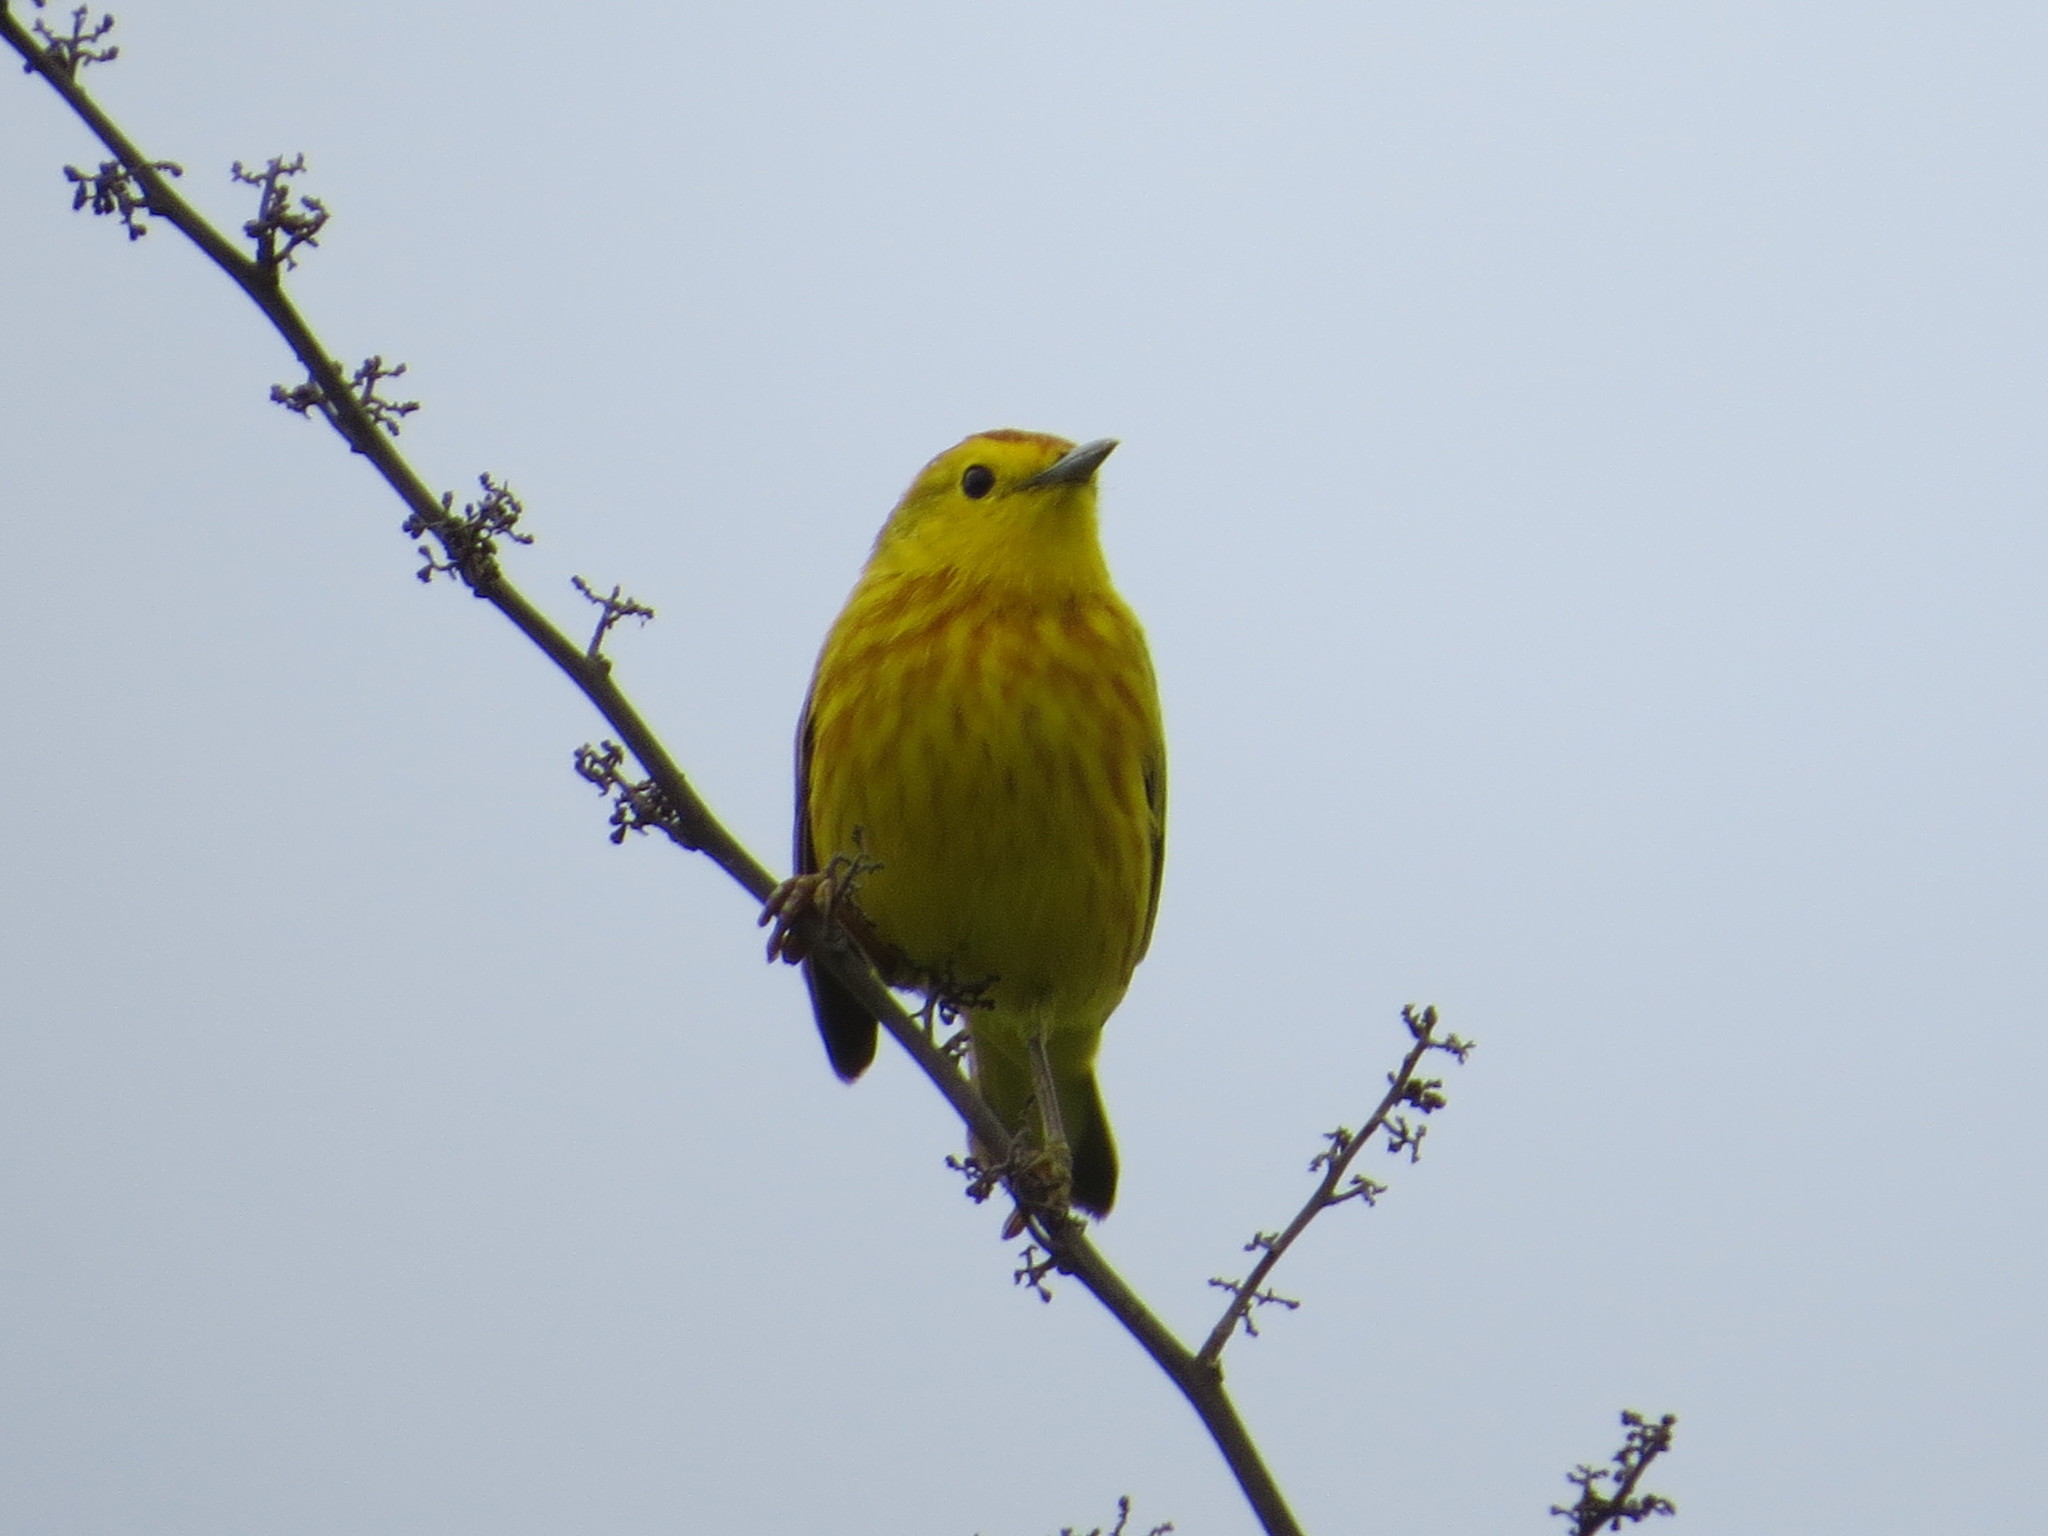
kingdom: Animalia
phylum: Chordata
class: Aves
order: Passeriformes
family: Parulidae
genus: Setophaga
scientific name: Setophaga petechia
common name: Yellow warbler
